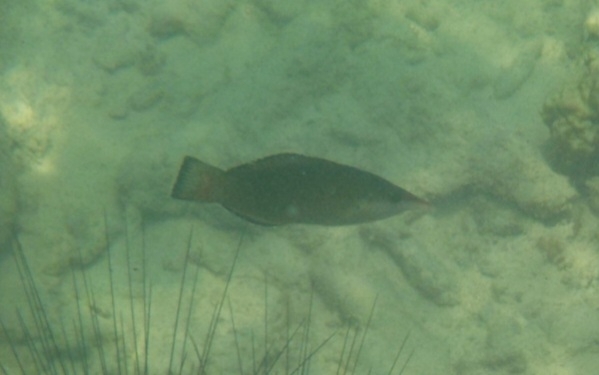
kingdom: Animalia
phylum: Chordata
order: Perciformes
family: Labridae
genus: Gomphosus
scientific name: Gomphosus caeruleus
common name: Bird wrasse
